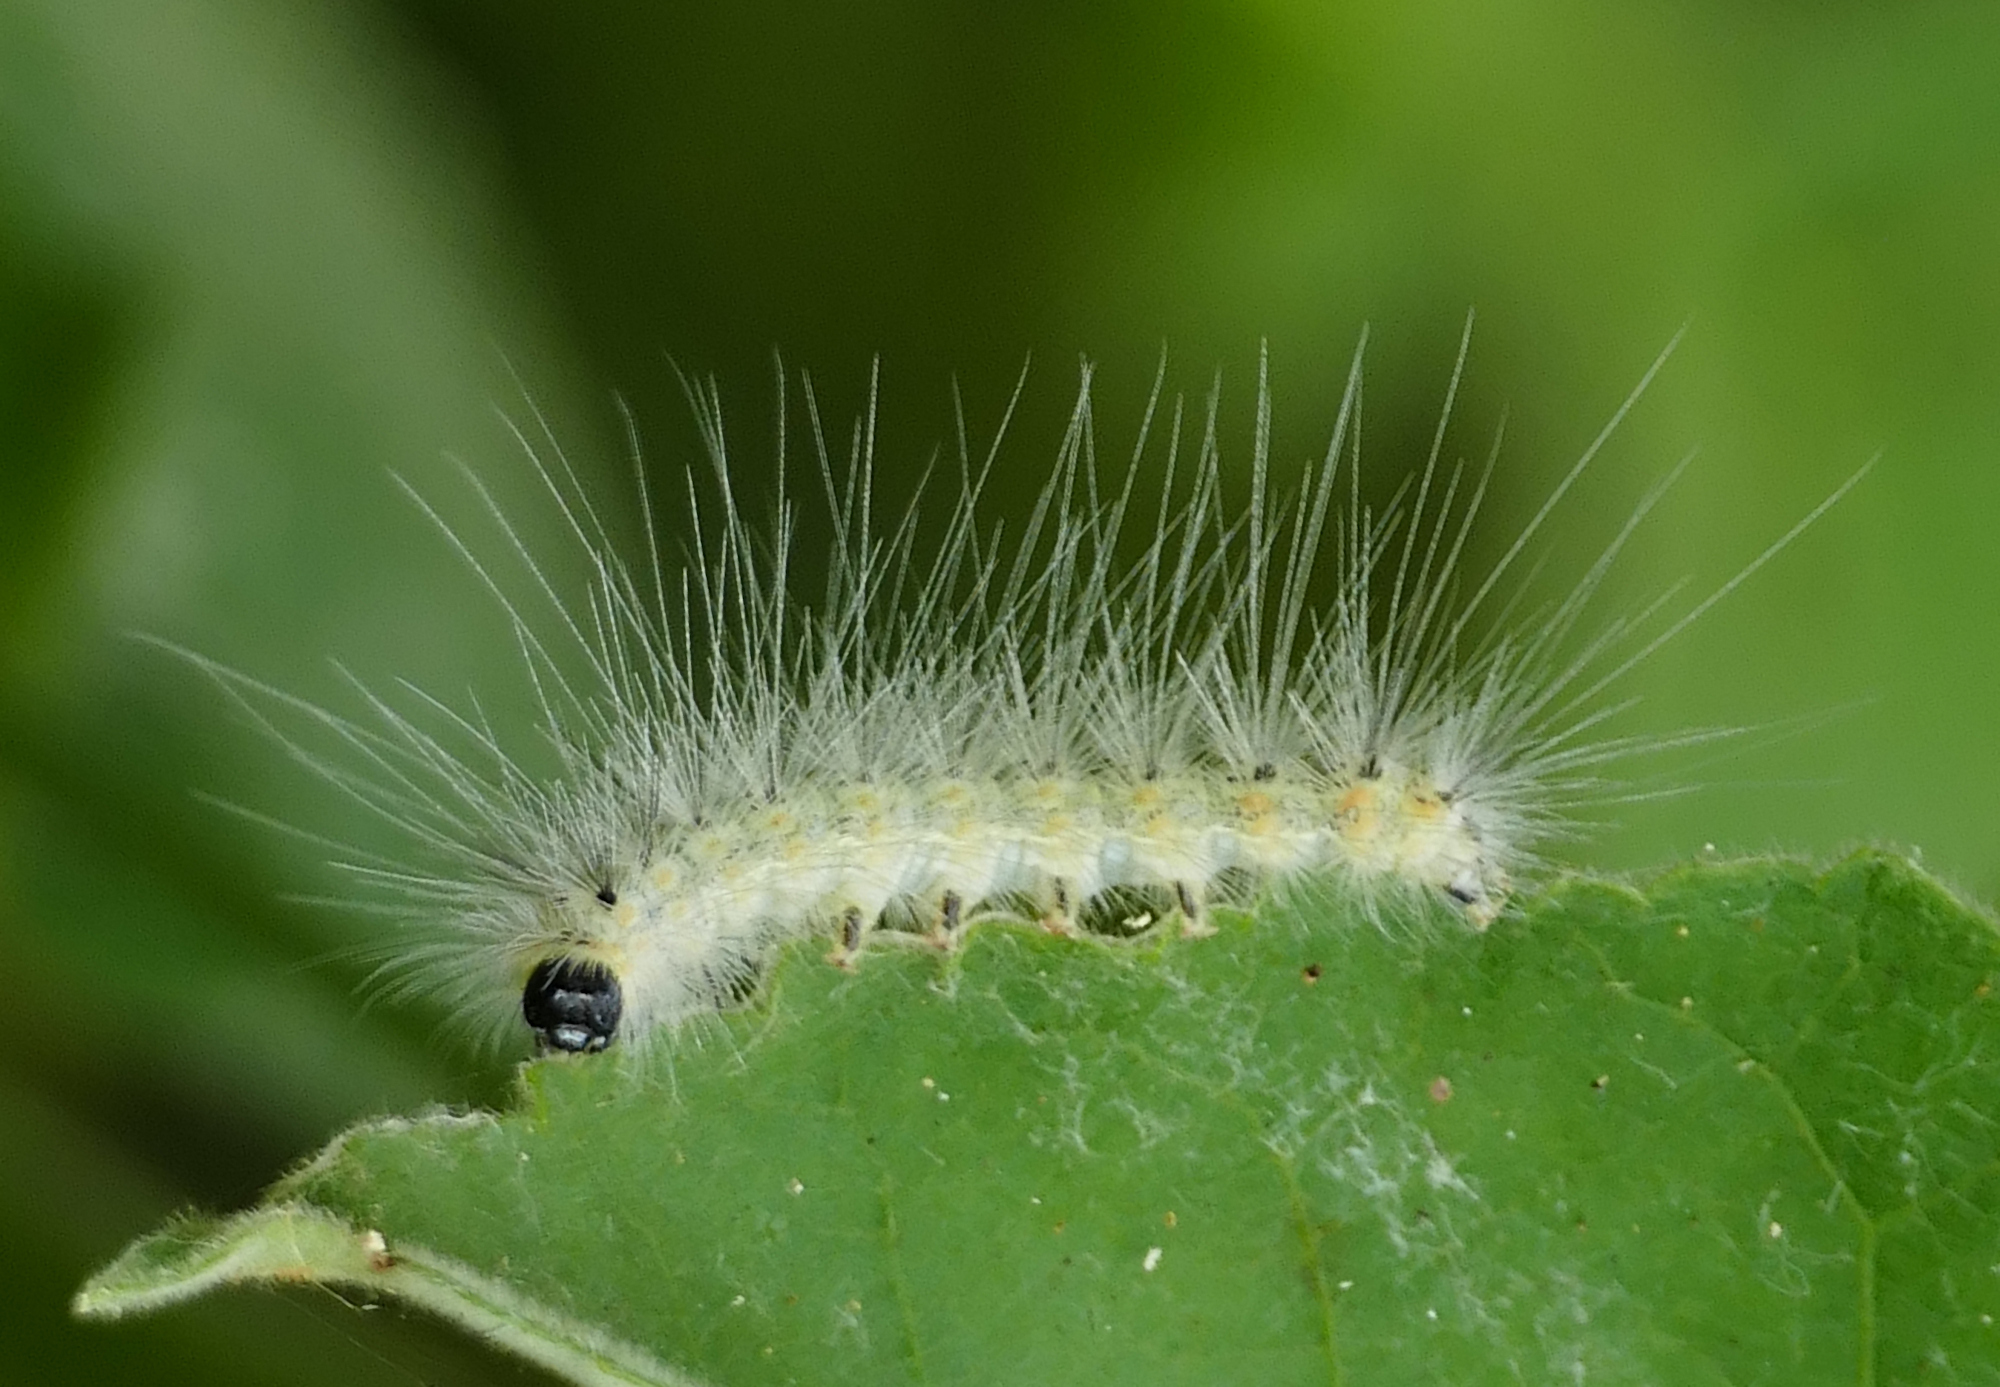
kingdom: Animalia
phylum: Arthropoda
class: Insecta
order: Lepidoptera
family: Erebidae
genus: Hyphantria
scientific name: Hyphantria cunea
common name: American white moth
